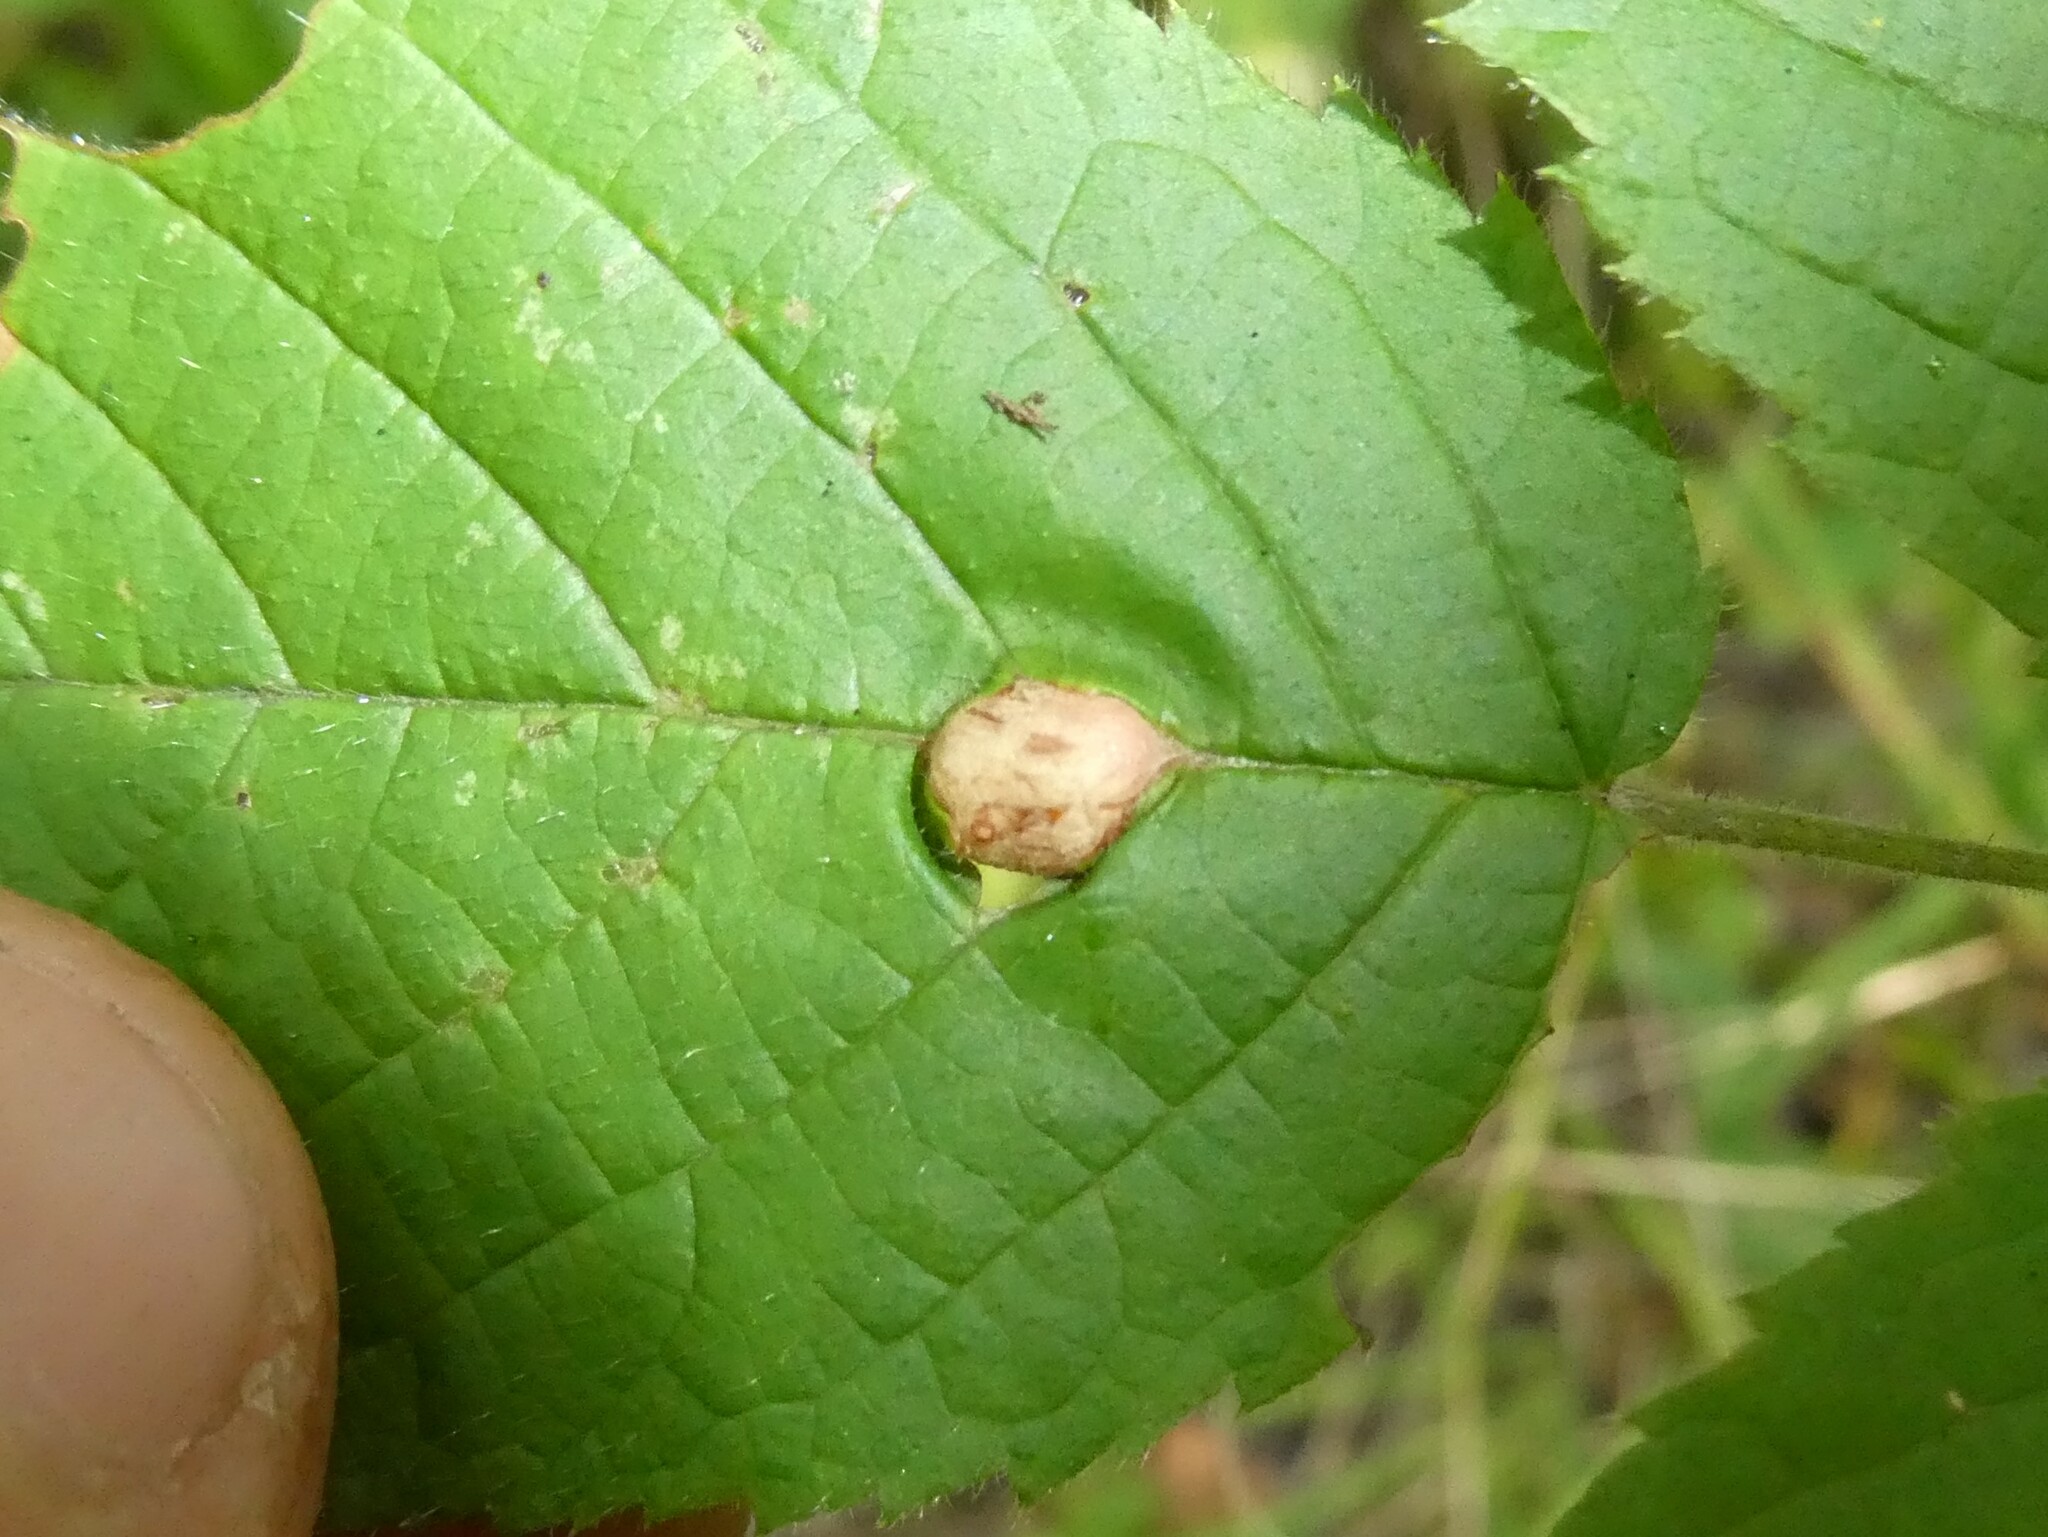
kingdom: Animalia
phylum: Arthropoda
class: Insecta
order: Diptera
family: Cecidomyiidae
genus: Neolasioptera
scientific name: Neolasioptera farinosa
